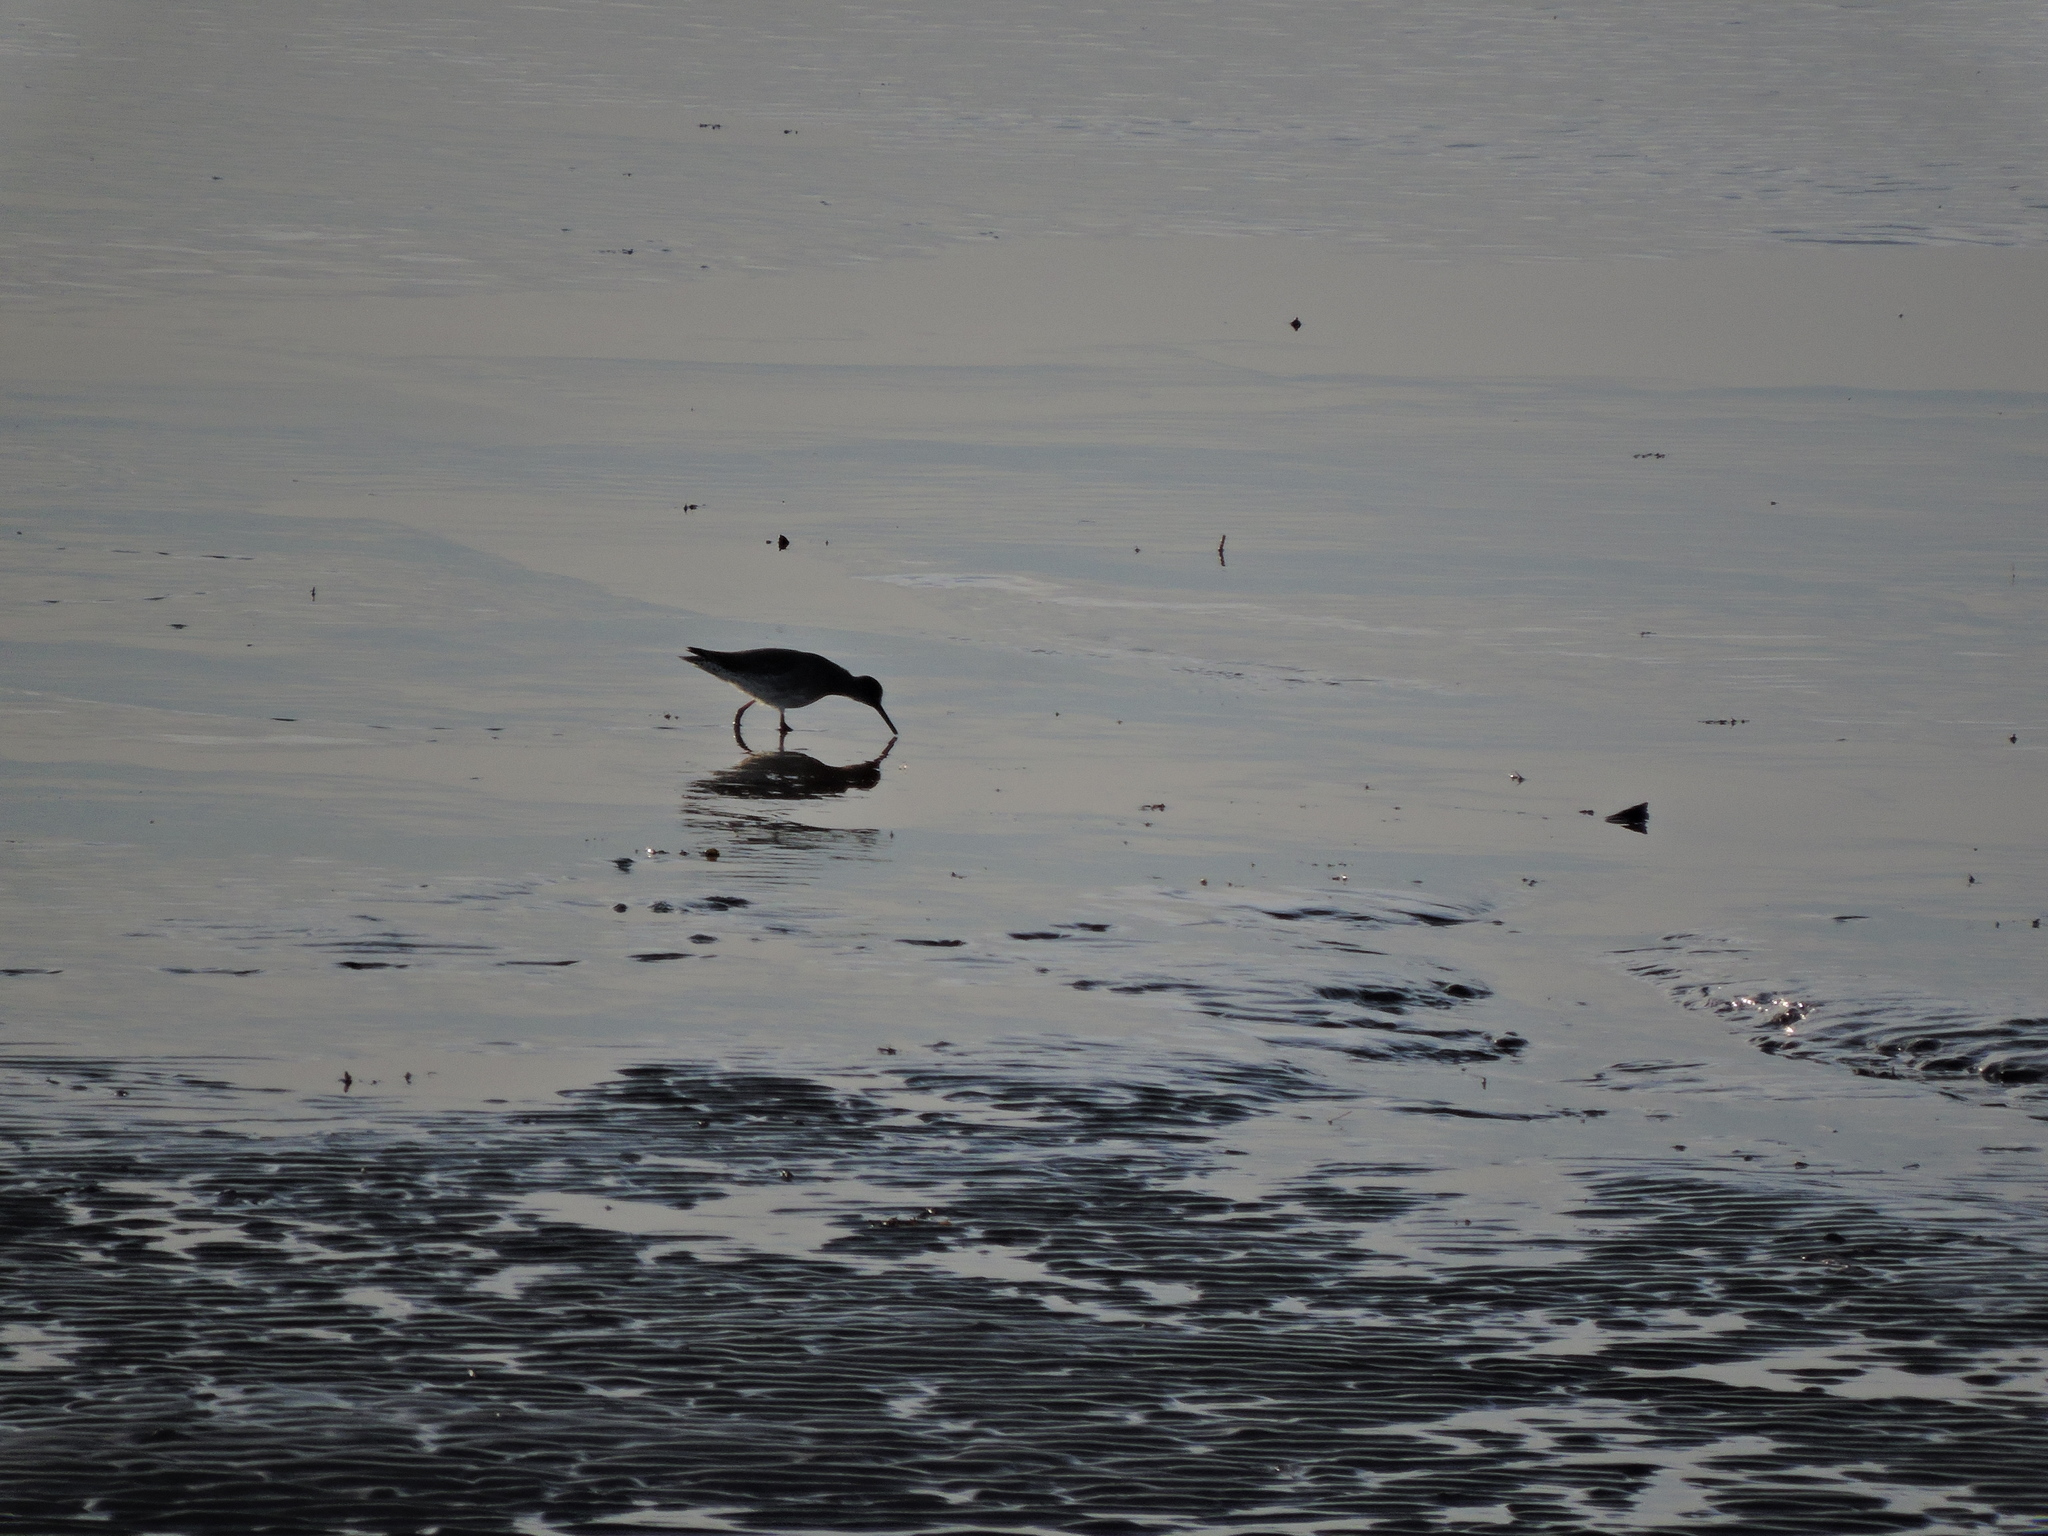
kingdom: Animalia
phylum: Chordata
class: Aves
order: Charadriiformes
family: Scolopacidae
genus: Tringa
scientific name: Tringa totanus
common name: Common redshank
